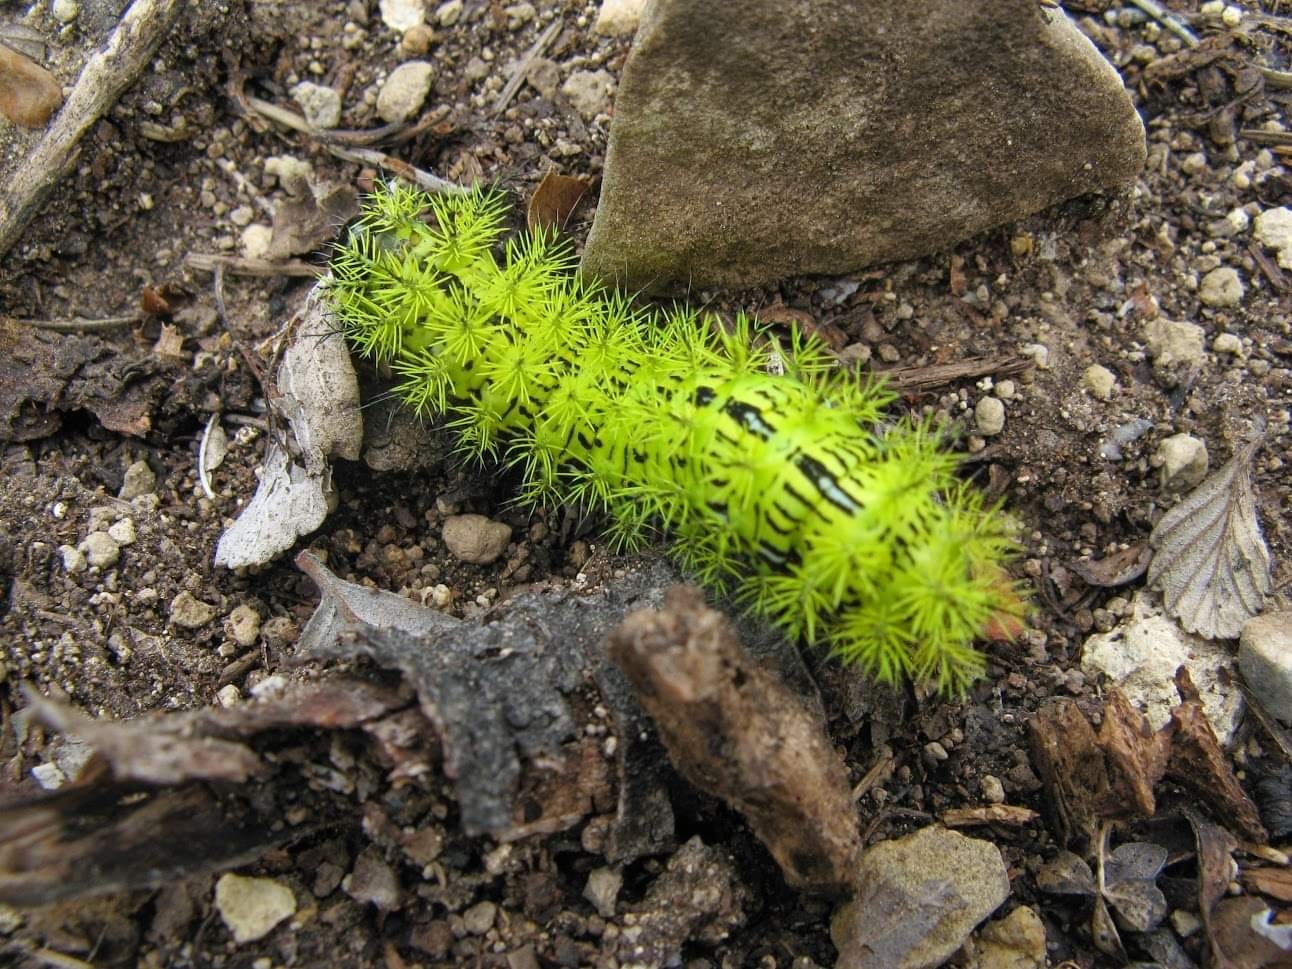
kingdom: Animalia
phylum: Arthropoda
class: Insecta
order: Lepidoptera
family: Saturniidae
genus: Automeris
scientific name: Automeris zephyria
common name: Zephyr eyed silkmoth
